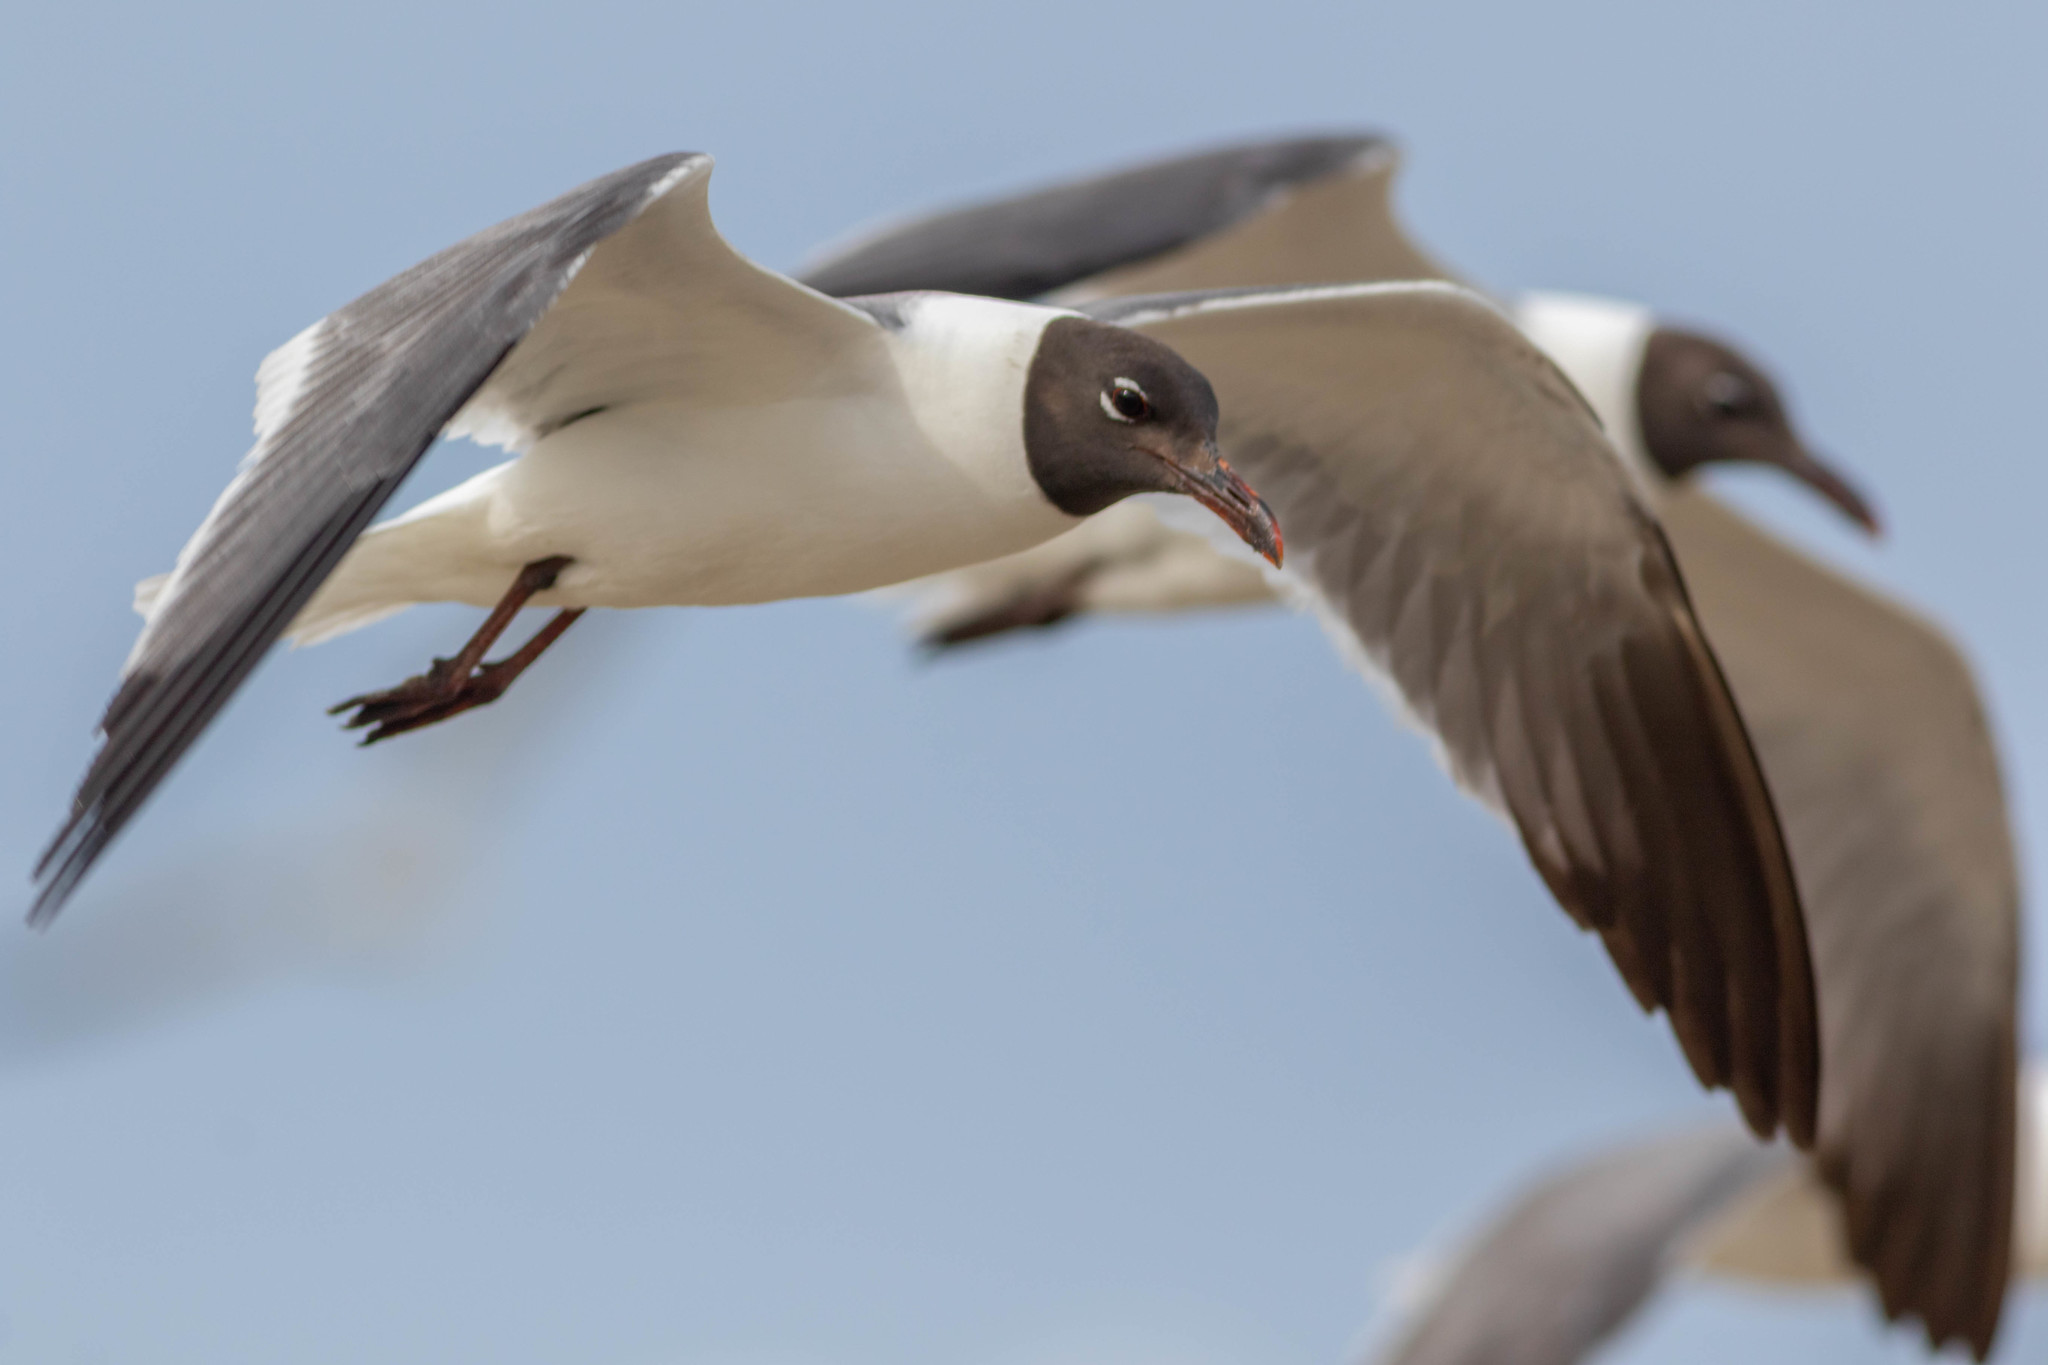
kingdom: Animalia
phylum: Chordata
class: Aves
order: Charadriiformes
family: Laridae
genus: Leucophaeus
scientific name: Leucophaeus atricilla
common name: Laughing gull
